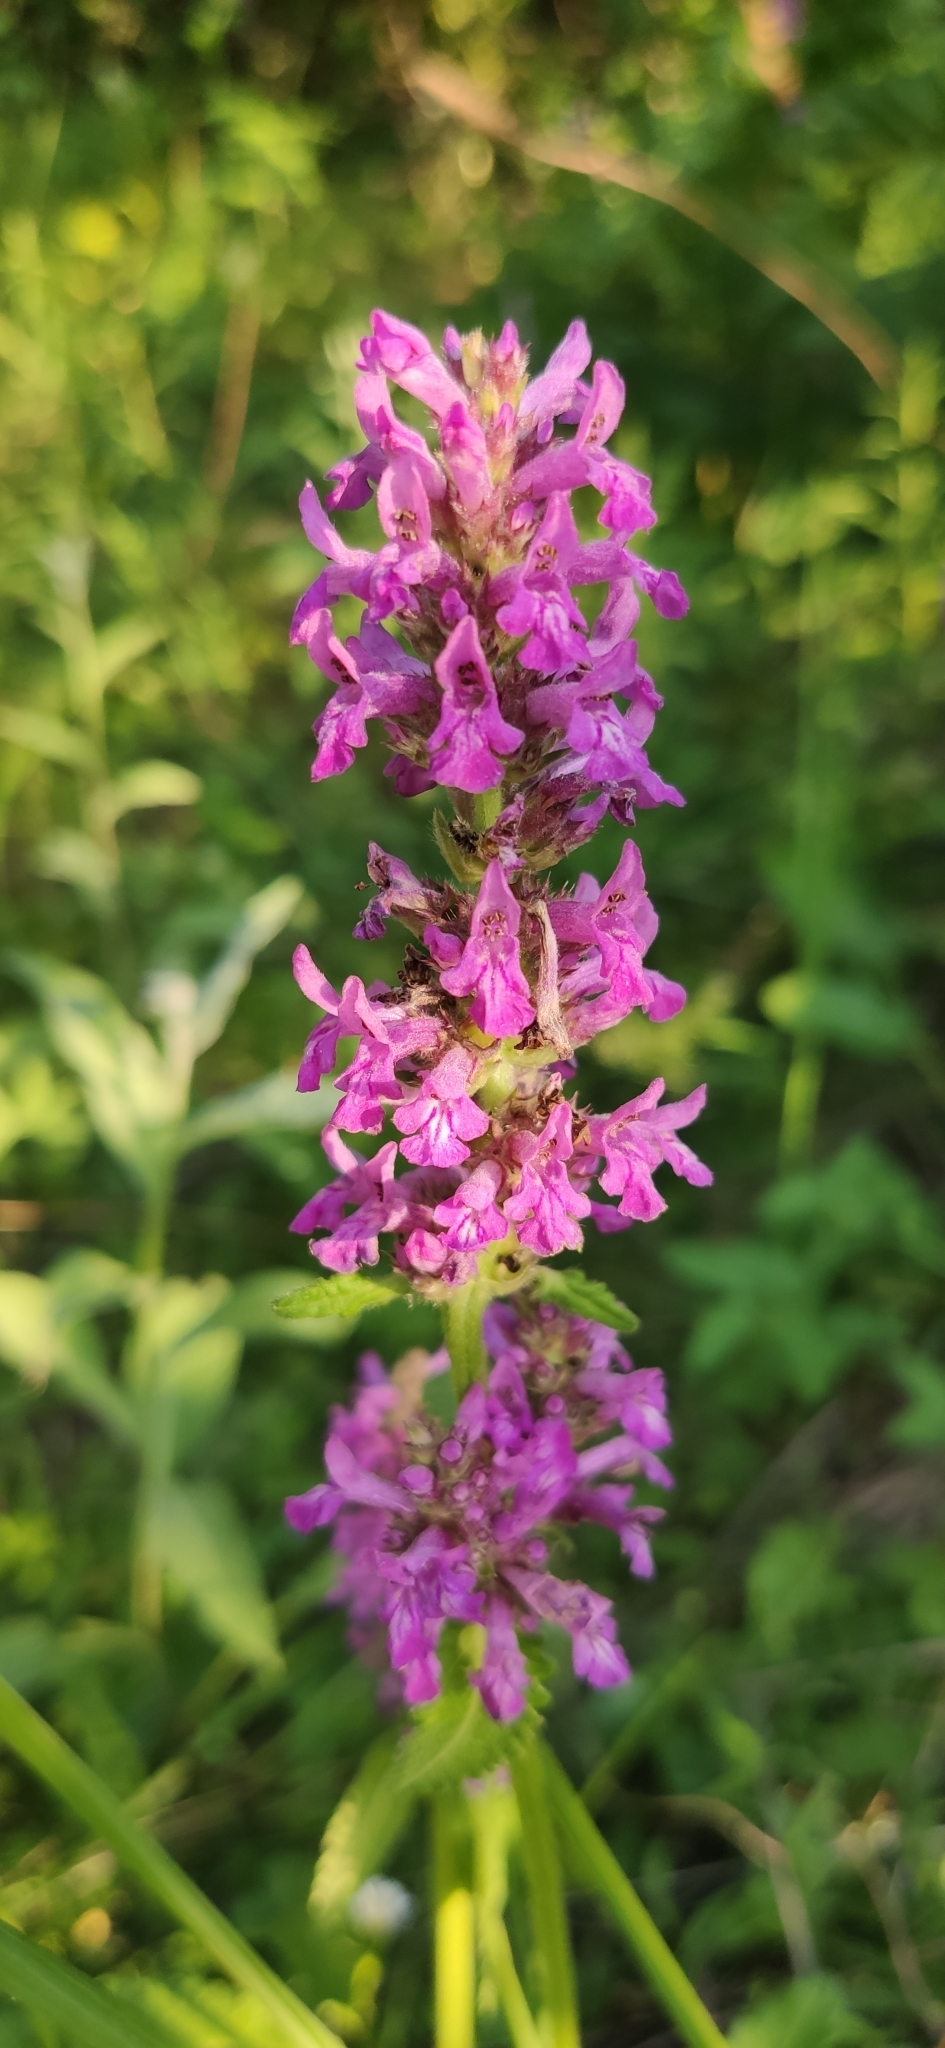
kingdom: Plantae
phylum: Tracheophyta
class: Magnoliopsida
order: Lamiales
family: Lamiaceae
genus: Betonica
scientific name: Betonica officinalis
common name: Bishop's-wort
